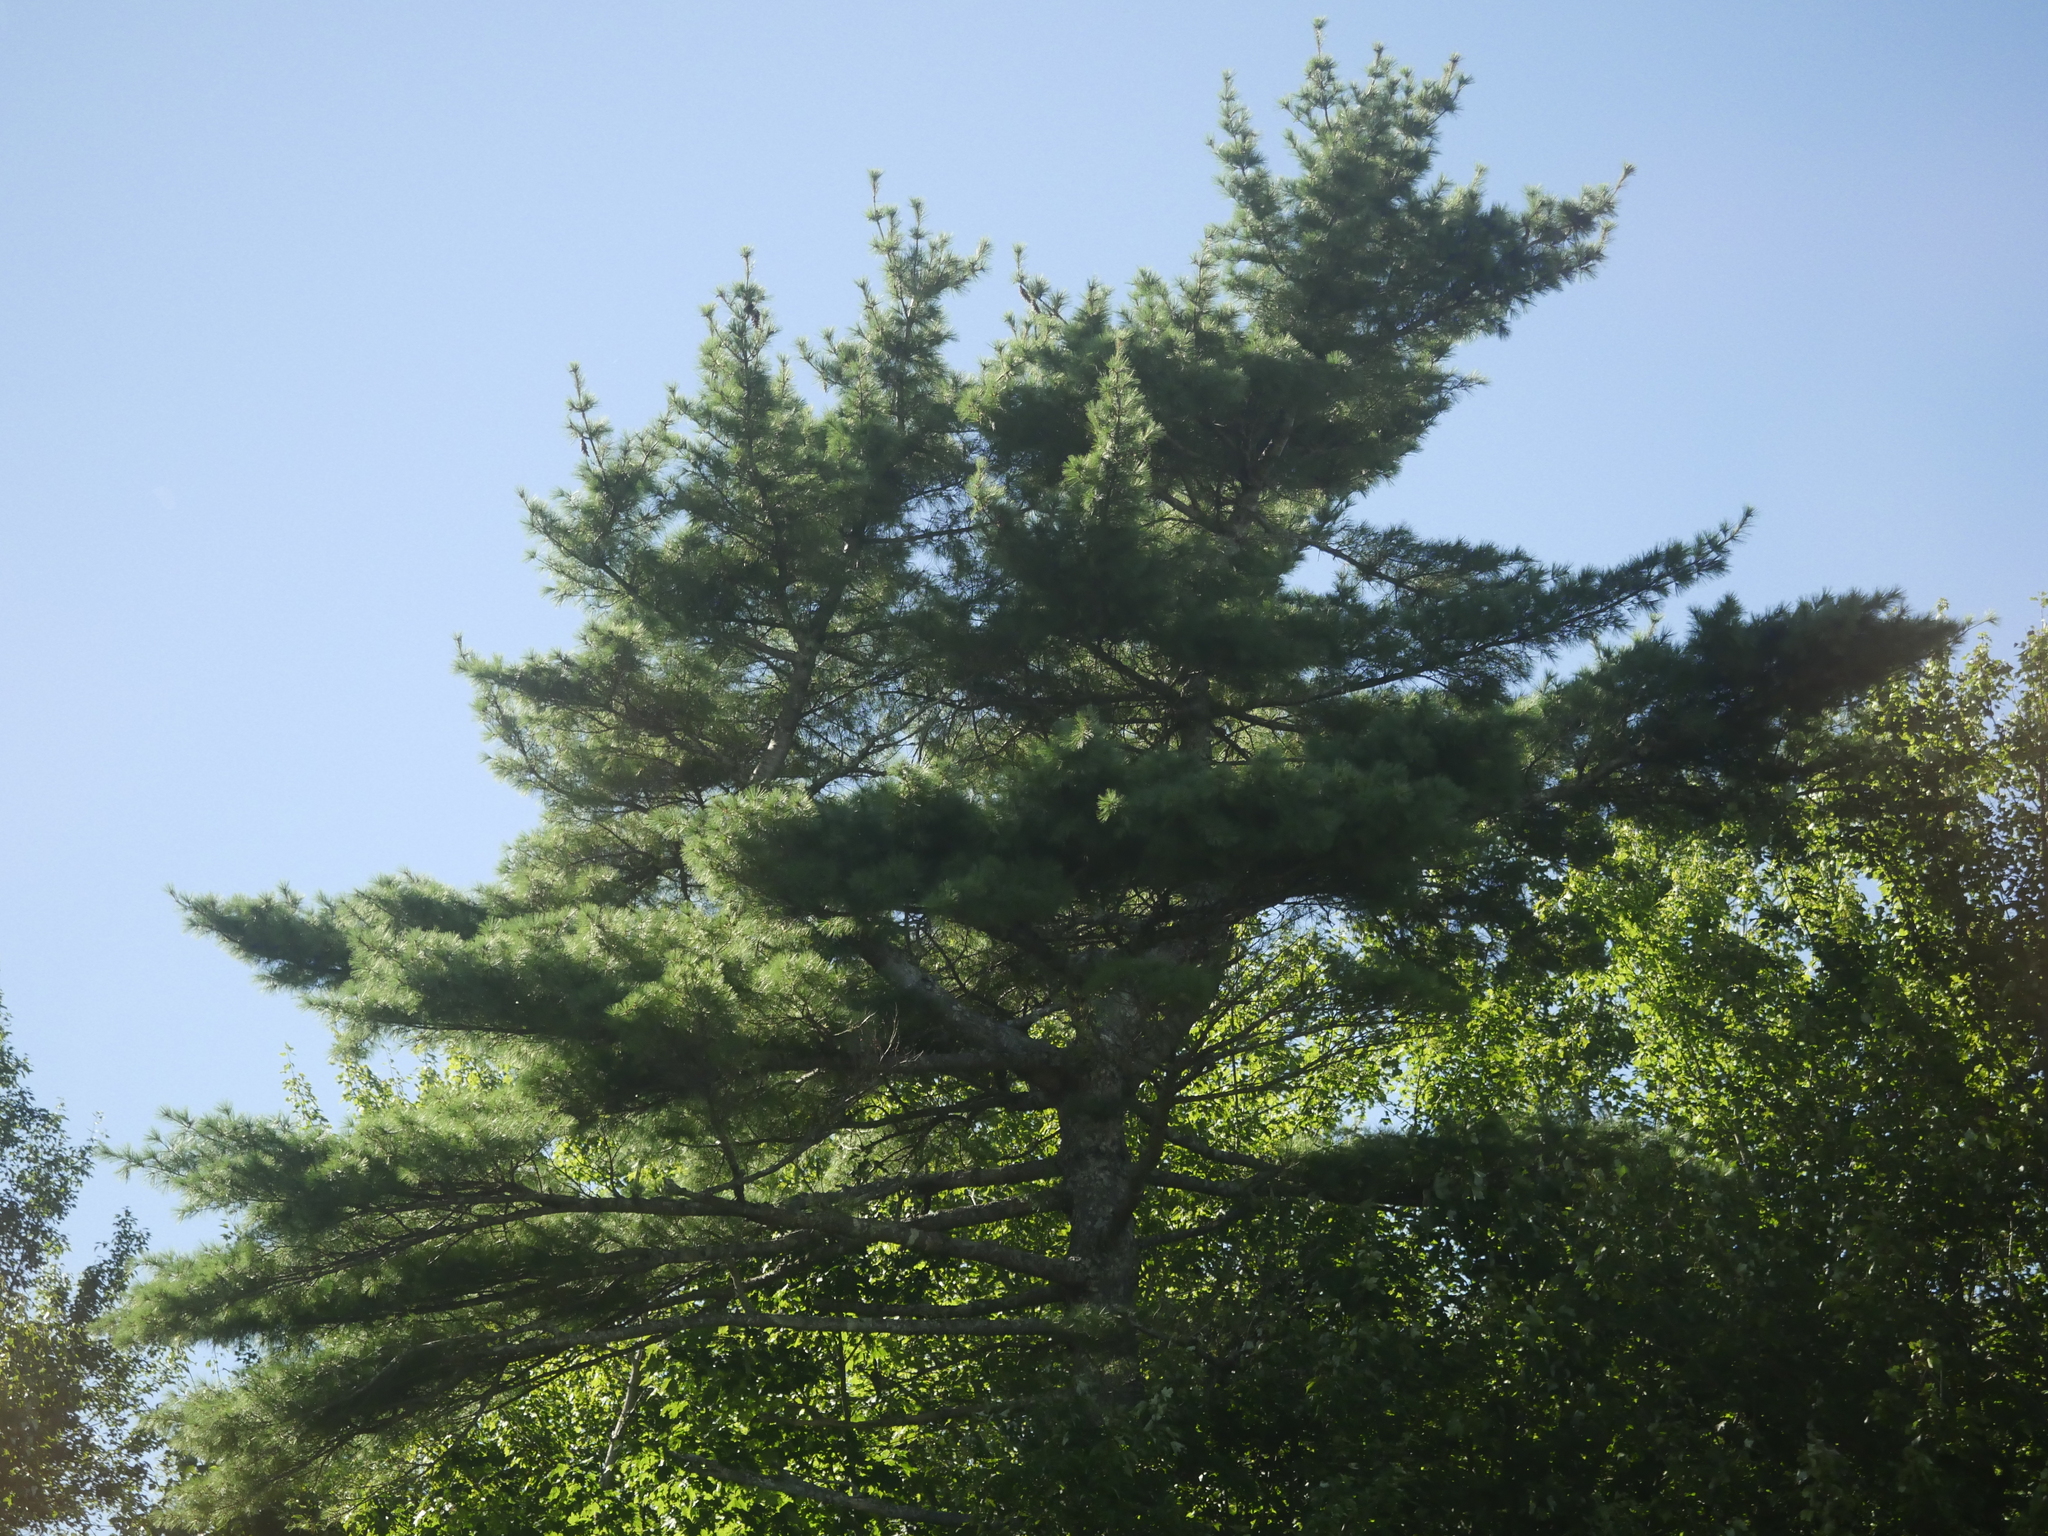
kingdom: Plantae
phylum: Tracheophyta
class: Pinopsida
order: Pinales
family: Pinaceae
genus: Pinus
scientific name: Pinus strobus
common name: Weymouth pine
